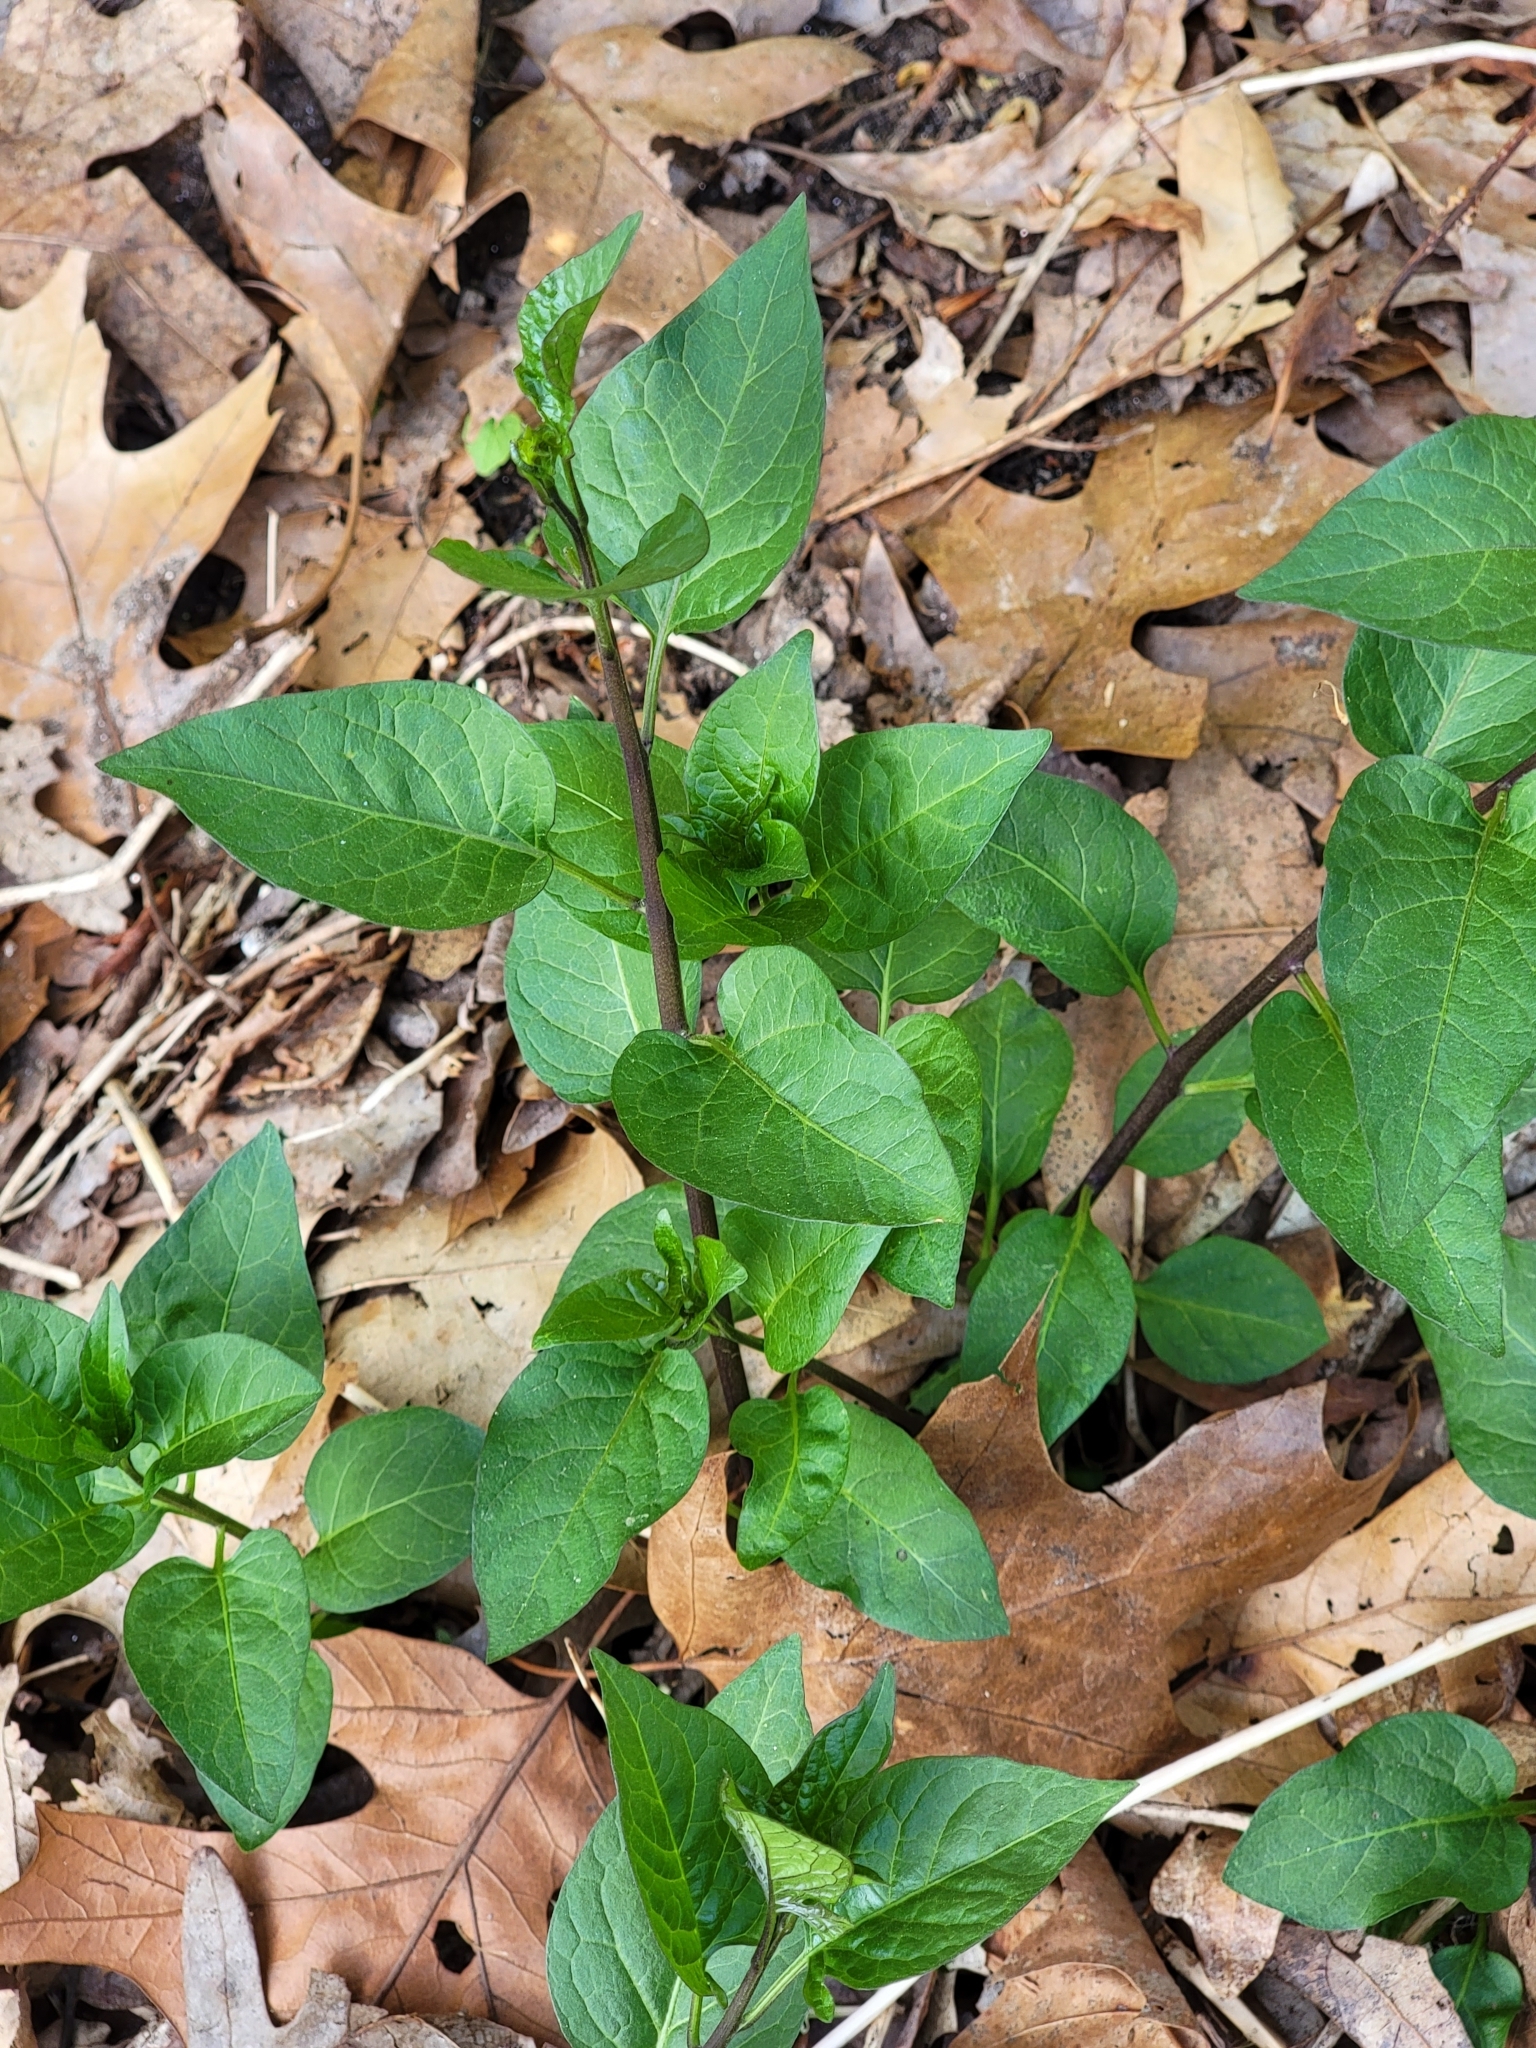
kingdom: Plantae
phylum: Tracheophyta
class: Magnoliopsida
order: Solanales
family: Solanaceae
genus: Solanum
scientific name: Solanum dulcamara
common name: Climbing nightshade
